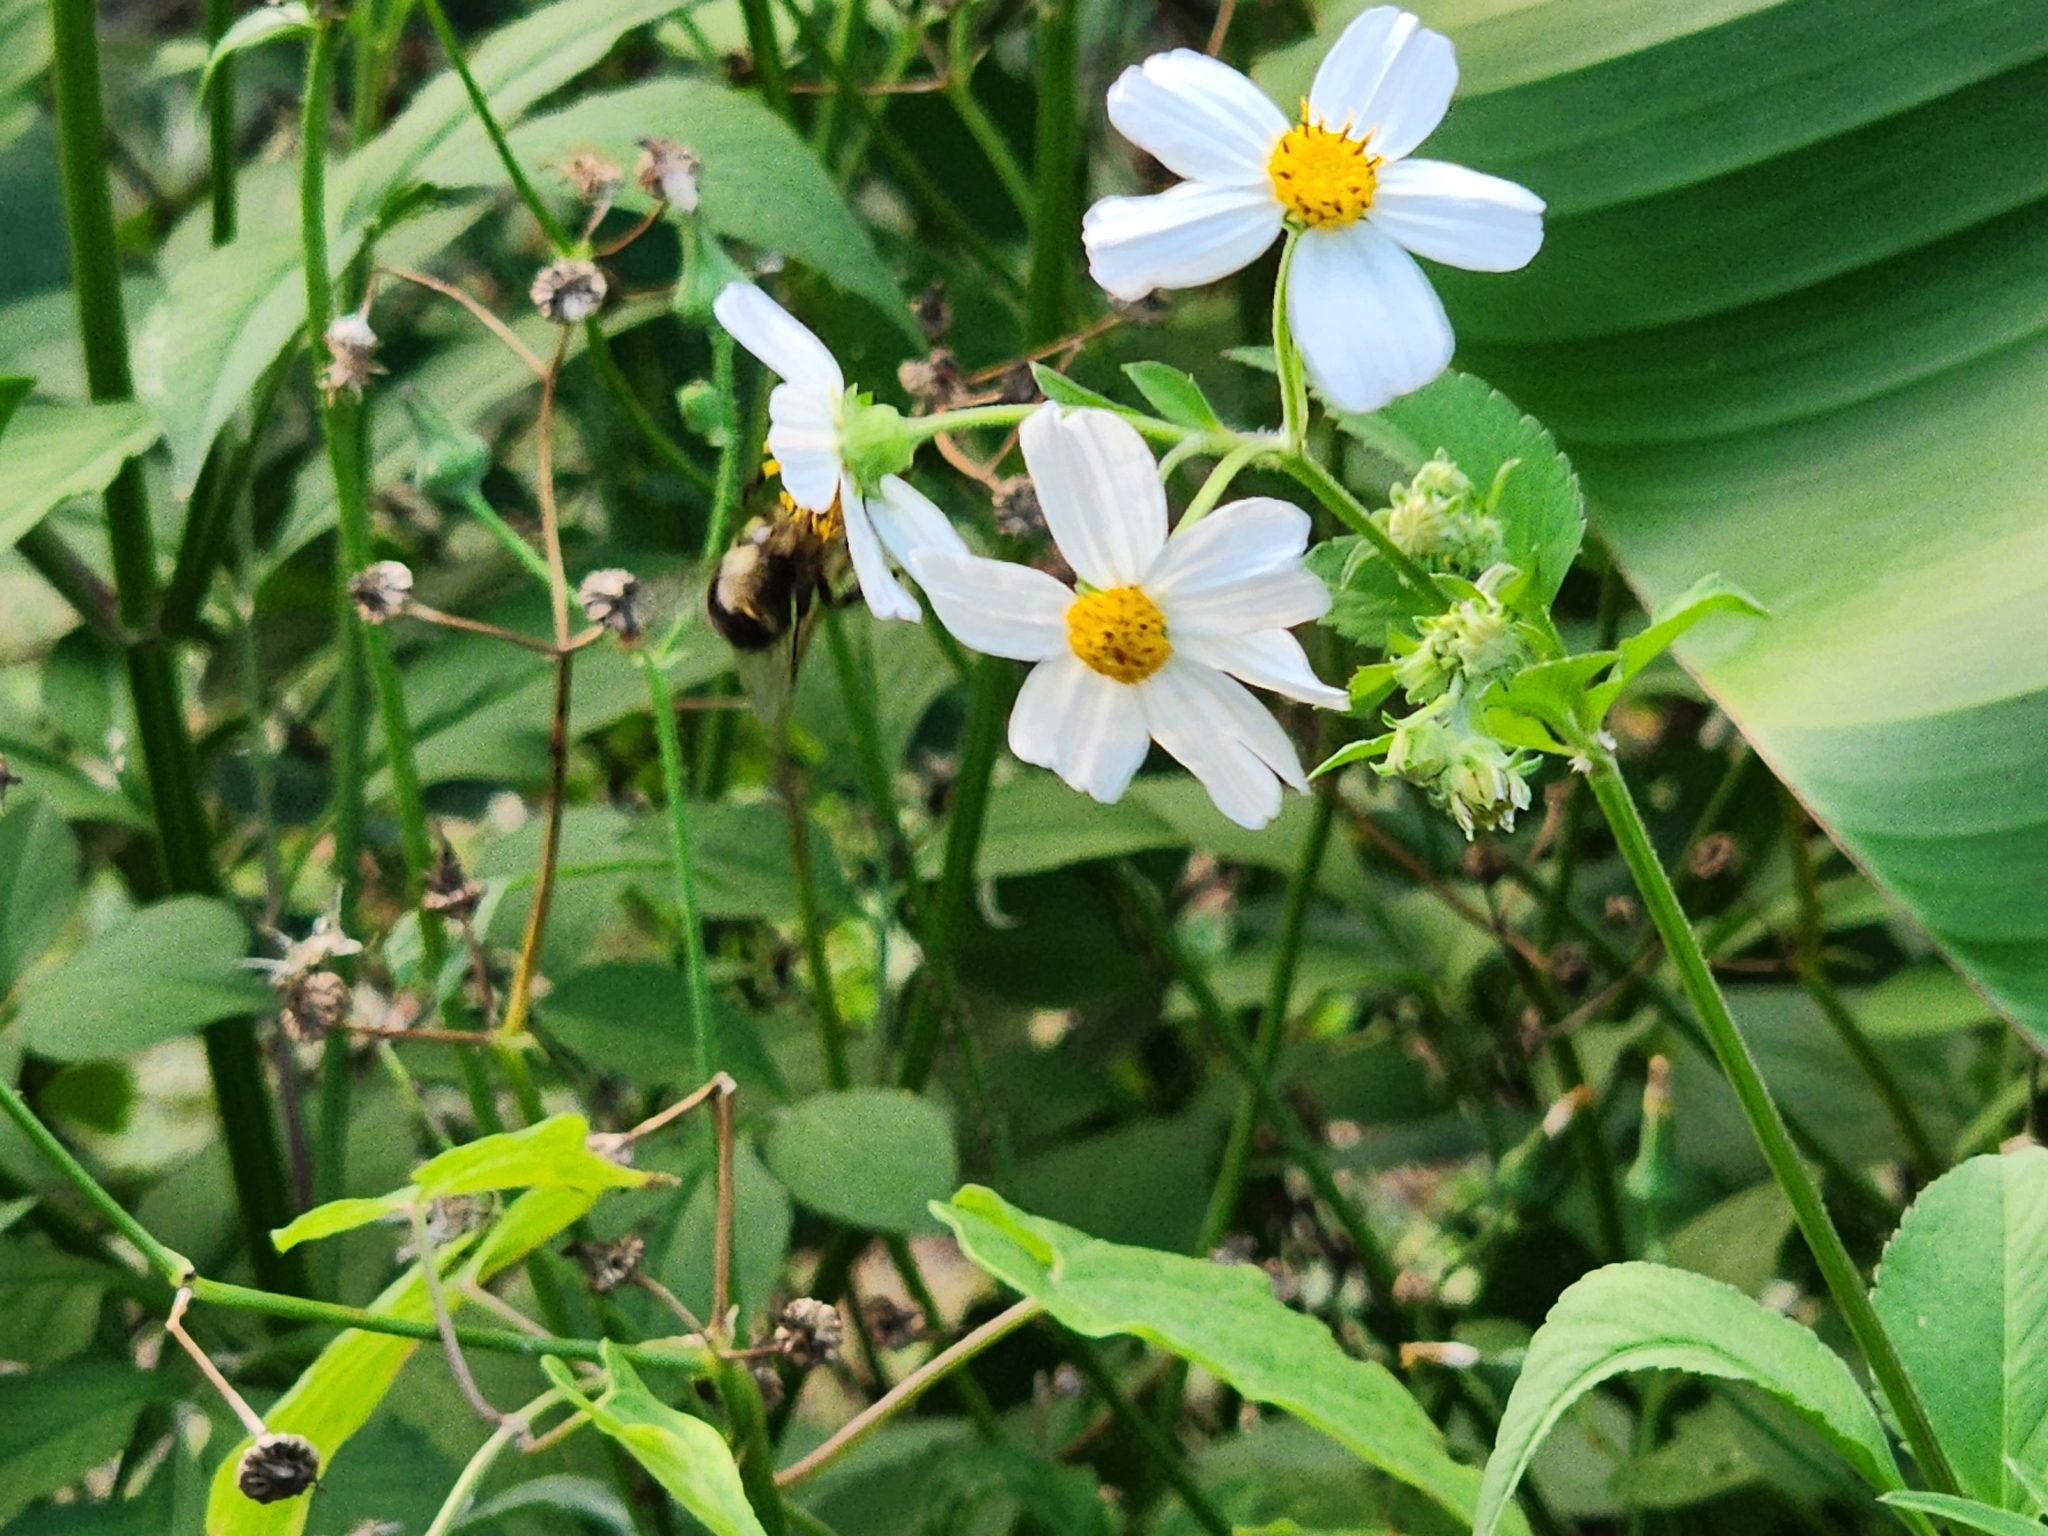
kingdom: Animalia
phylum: Arthropoda
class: Insecta
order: Hymenoptera
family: Apidae
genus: Bombus
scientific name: Bombus impatiens
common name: Common eastern bumble bee
